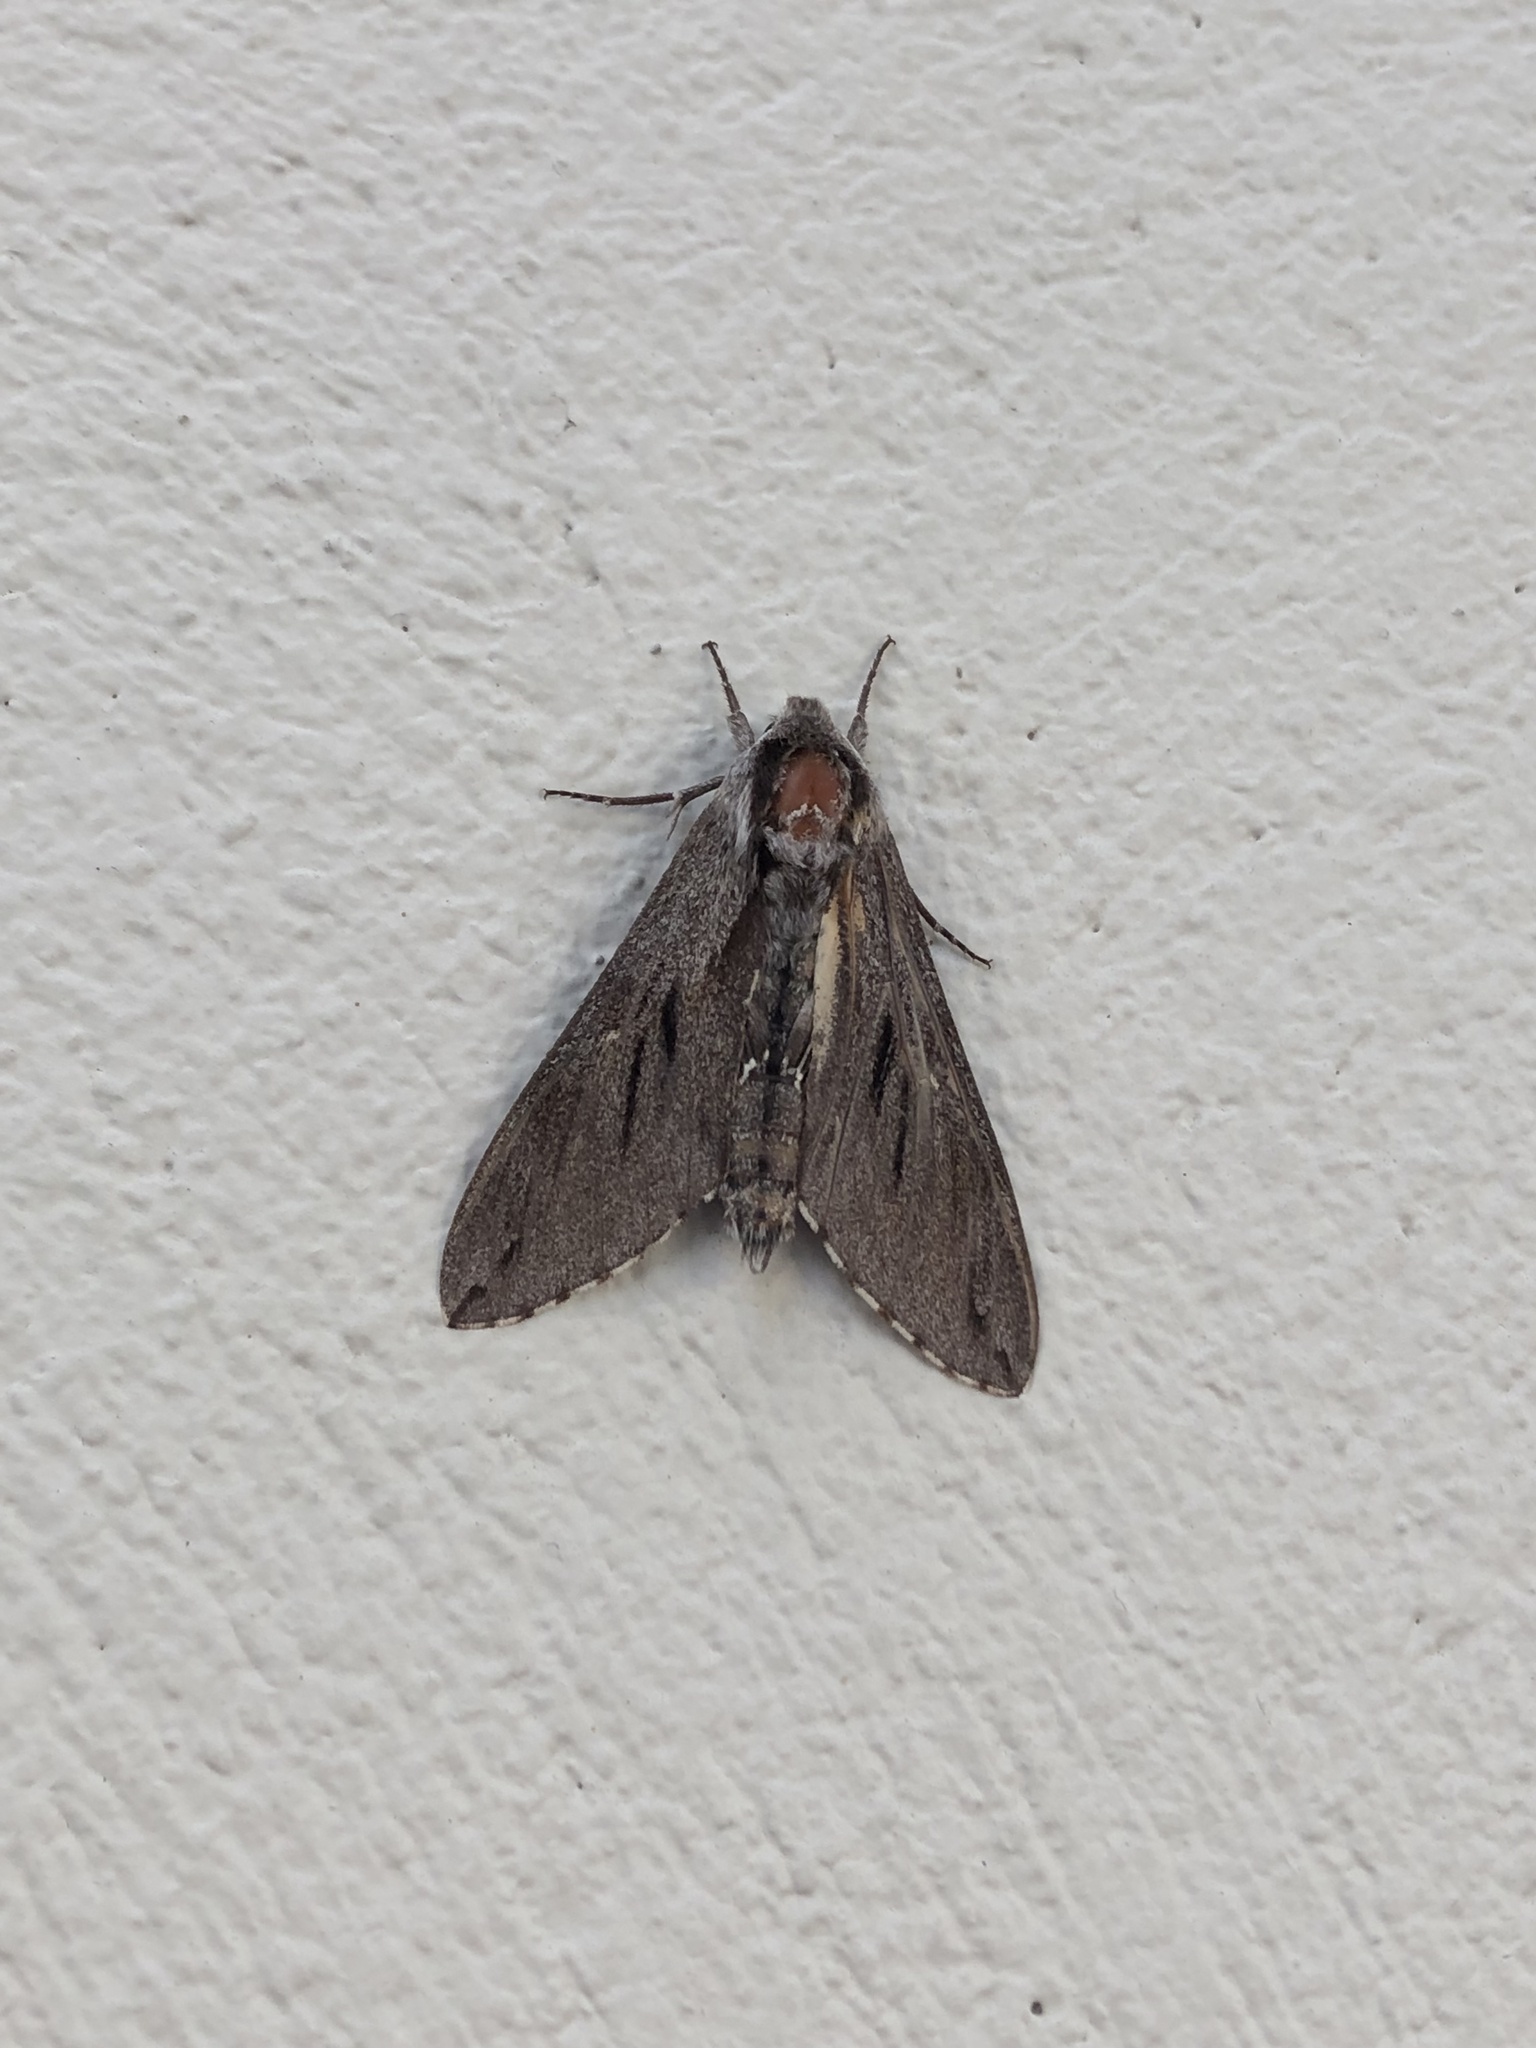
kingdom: Animalia
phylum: Arthropoda
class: Insecta
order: Lepidoptera
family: Sphingidae
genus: Sphinx
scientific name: Sphinx pinastri
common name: Pine hawk-moth
